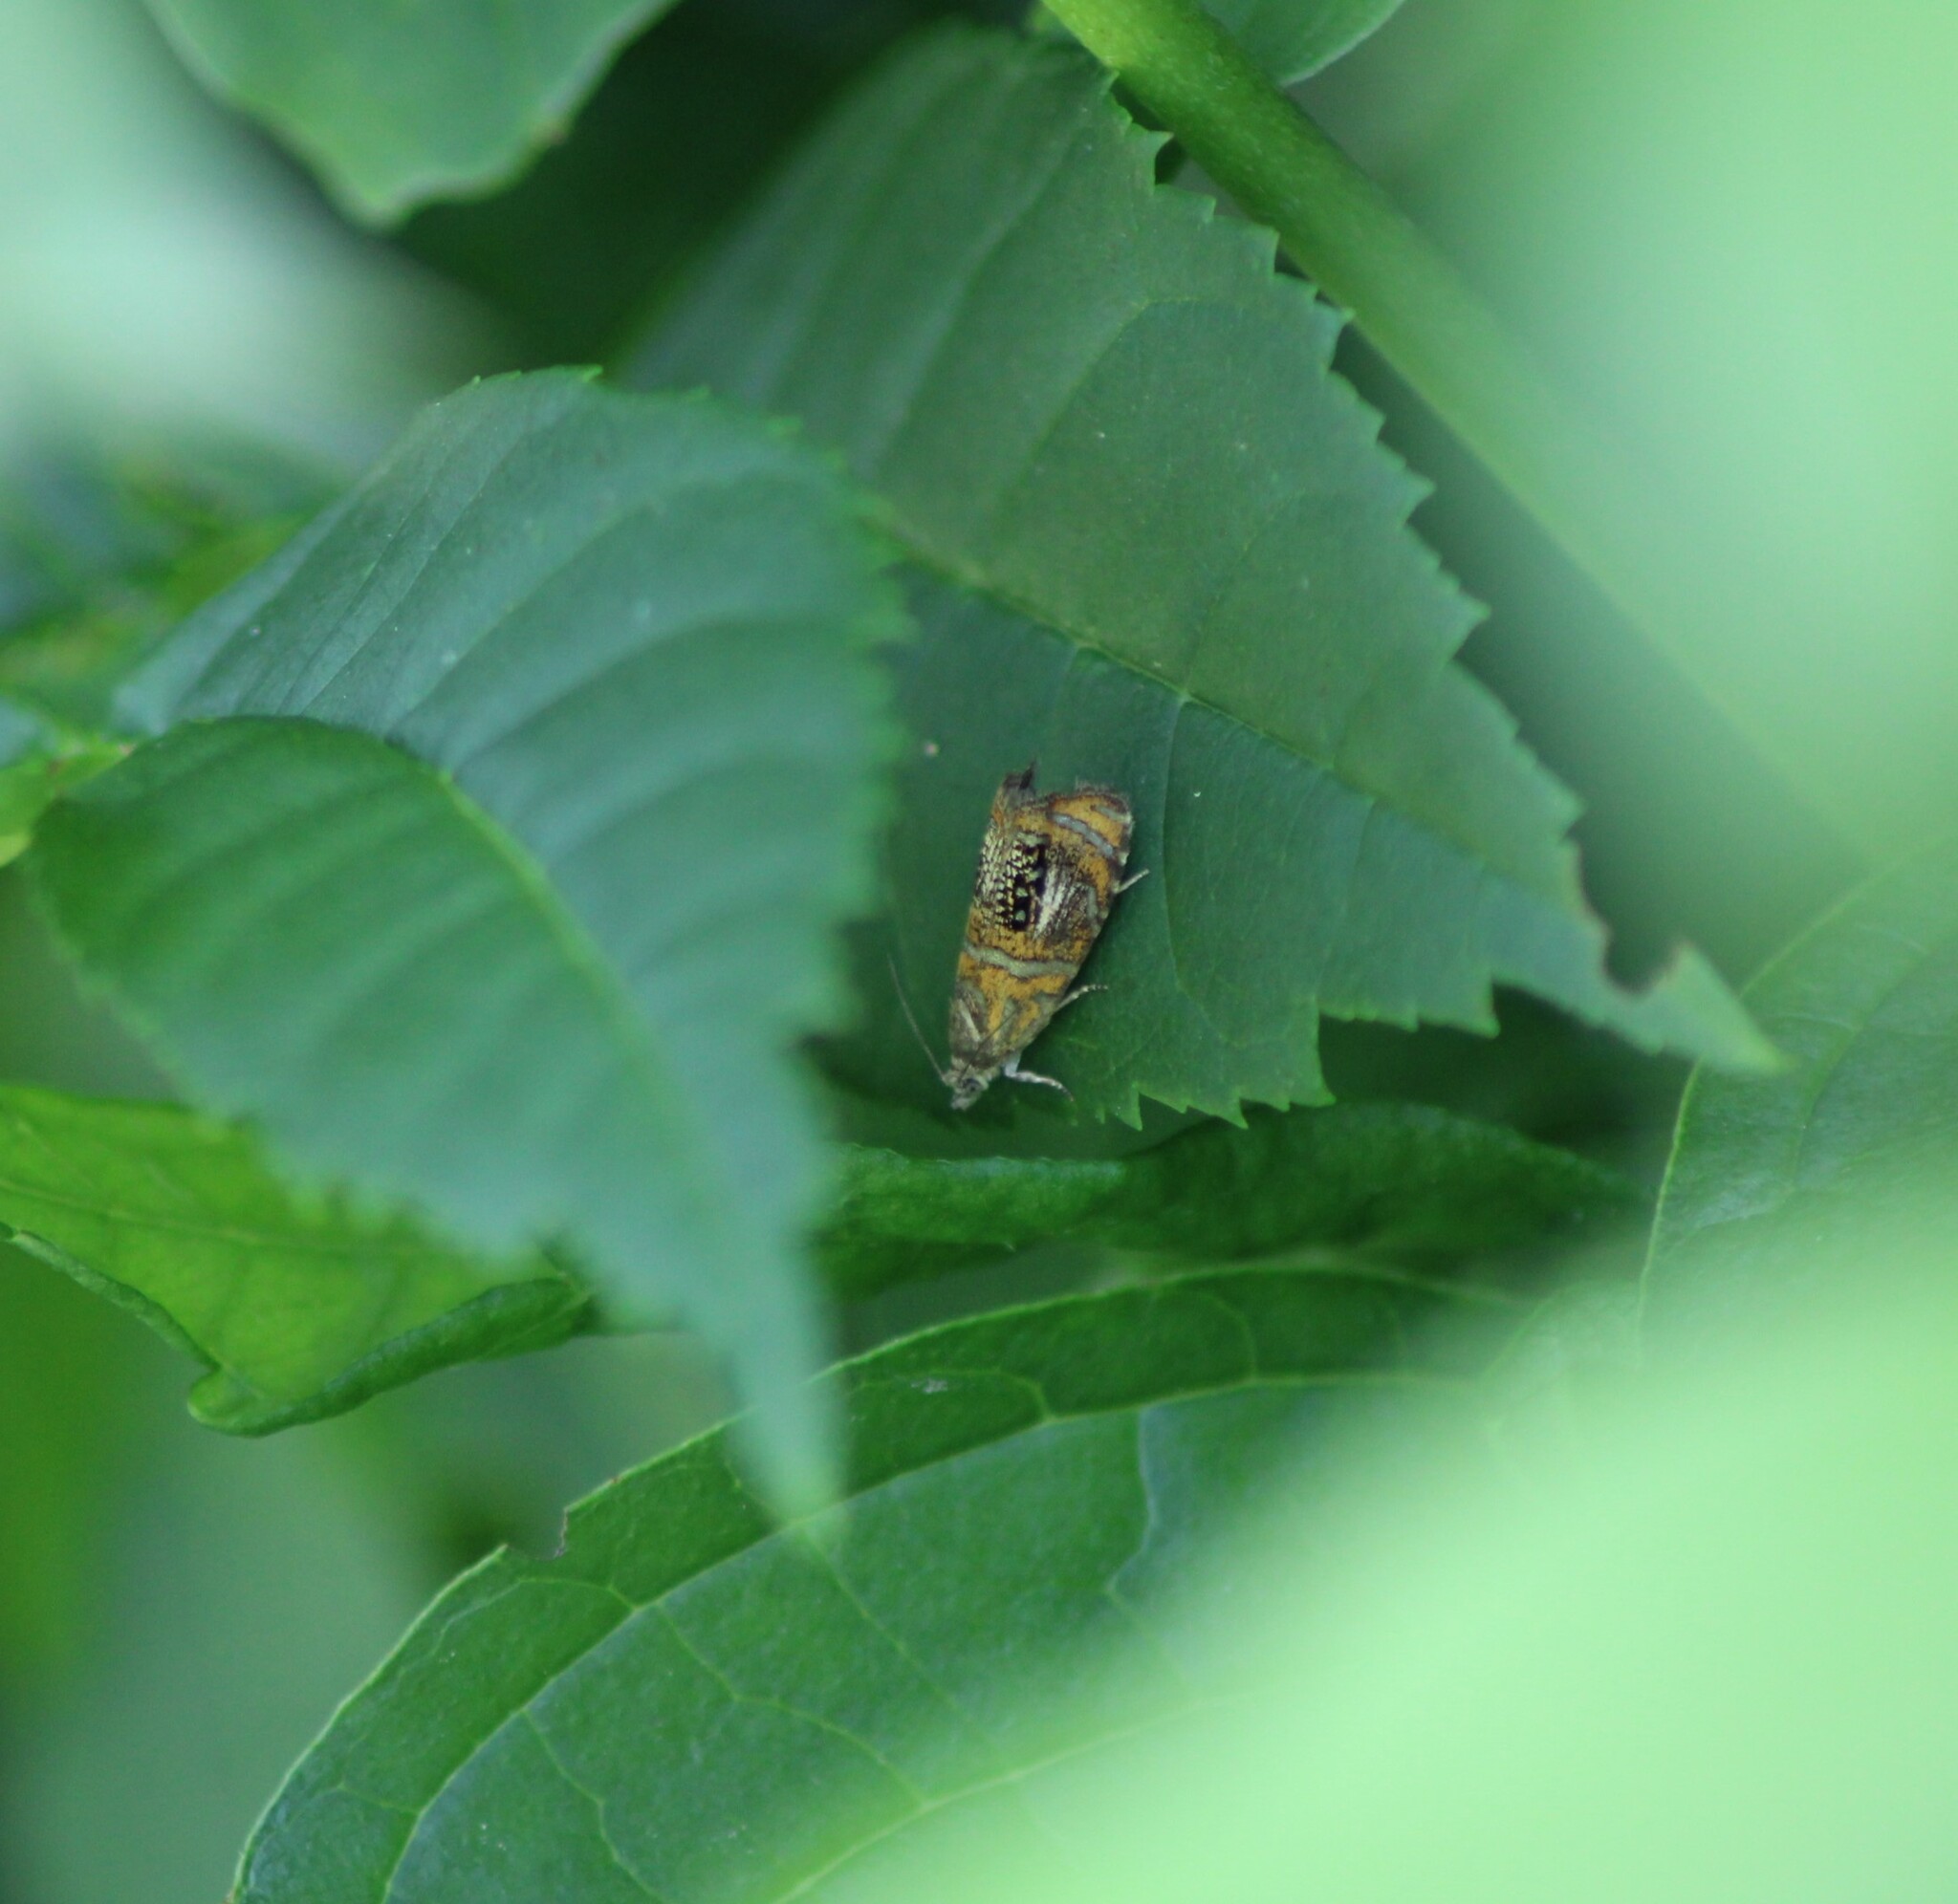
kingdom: Animalia
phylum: Arthropoda
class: Insecta
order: Lepidoptera
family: Tortricidae
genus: Olethreutes
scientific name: Olethreutes arcuella
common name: Arched marble
